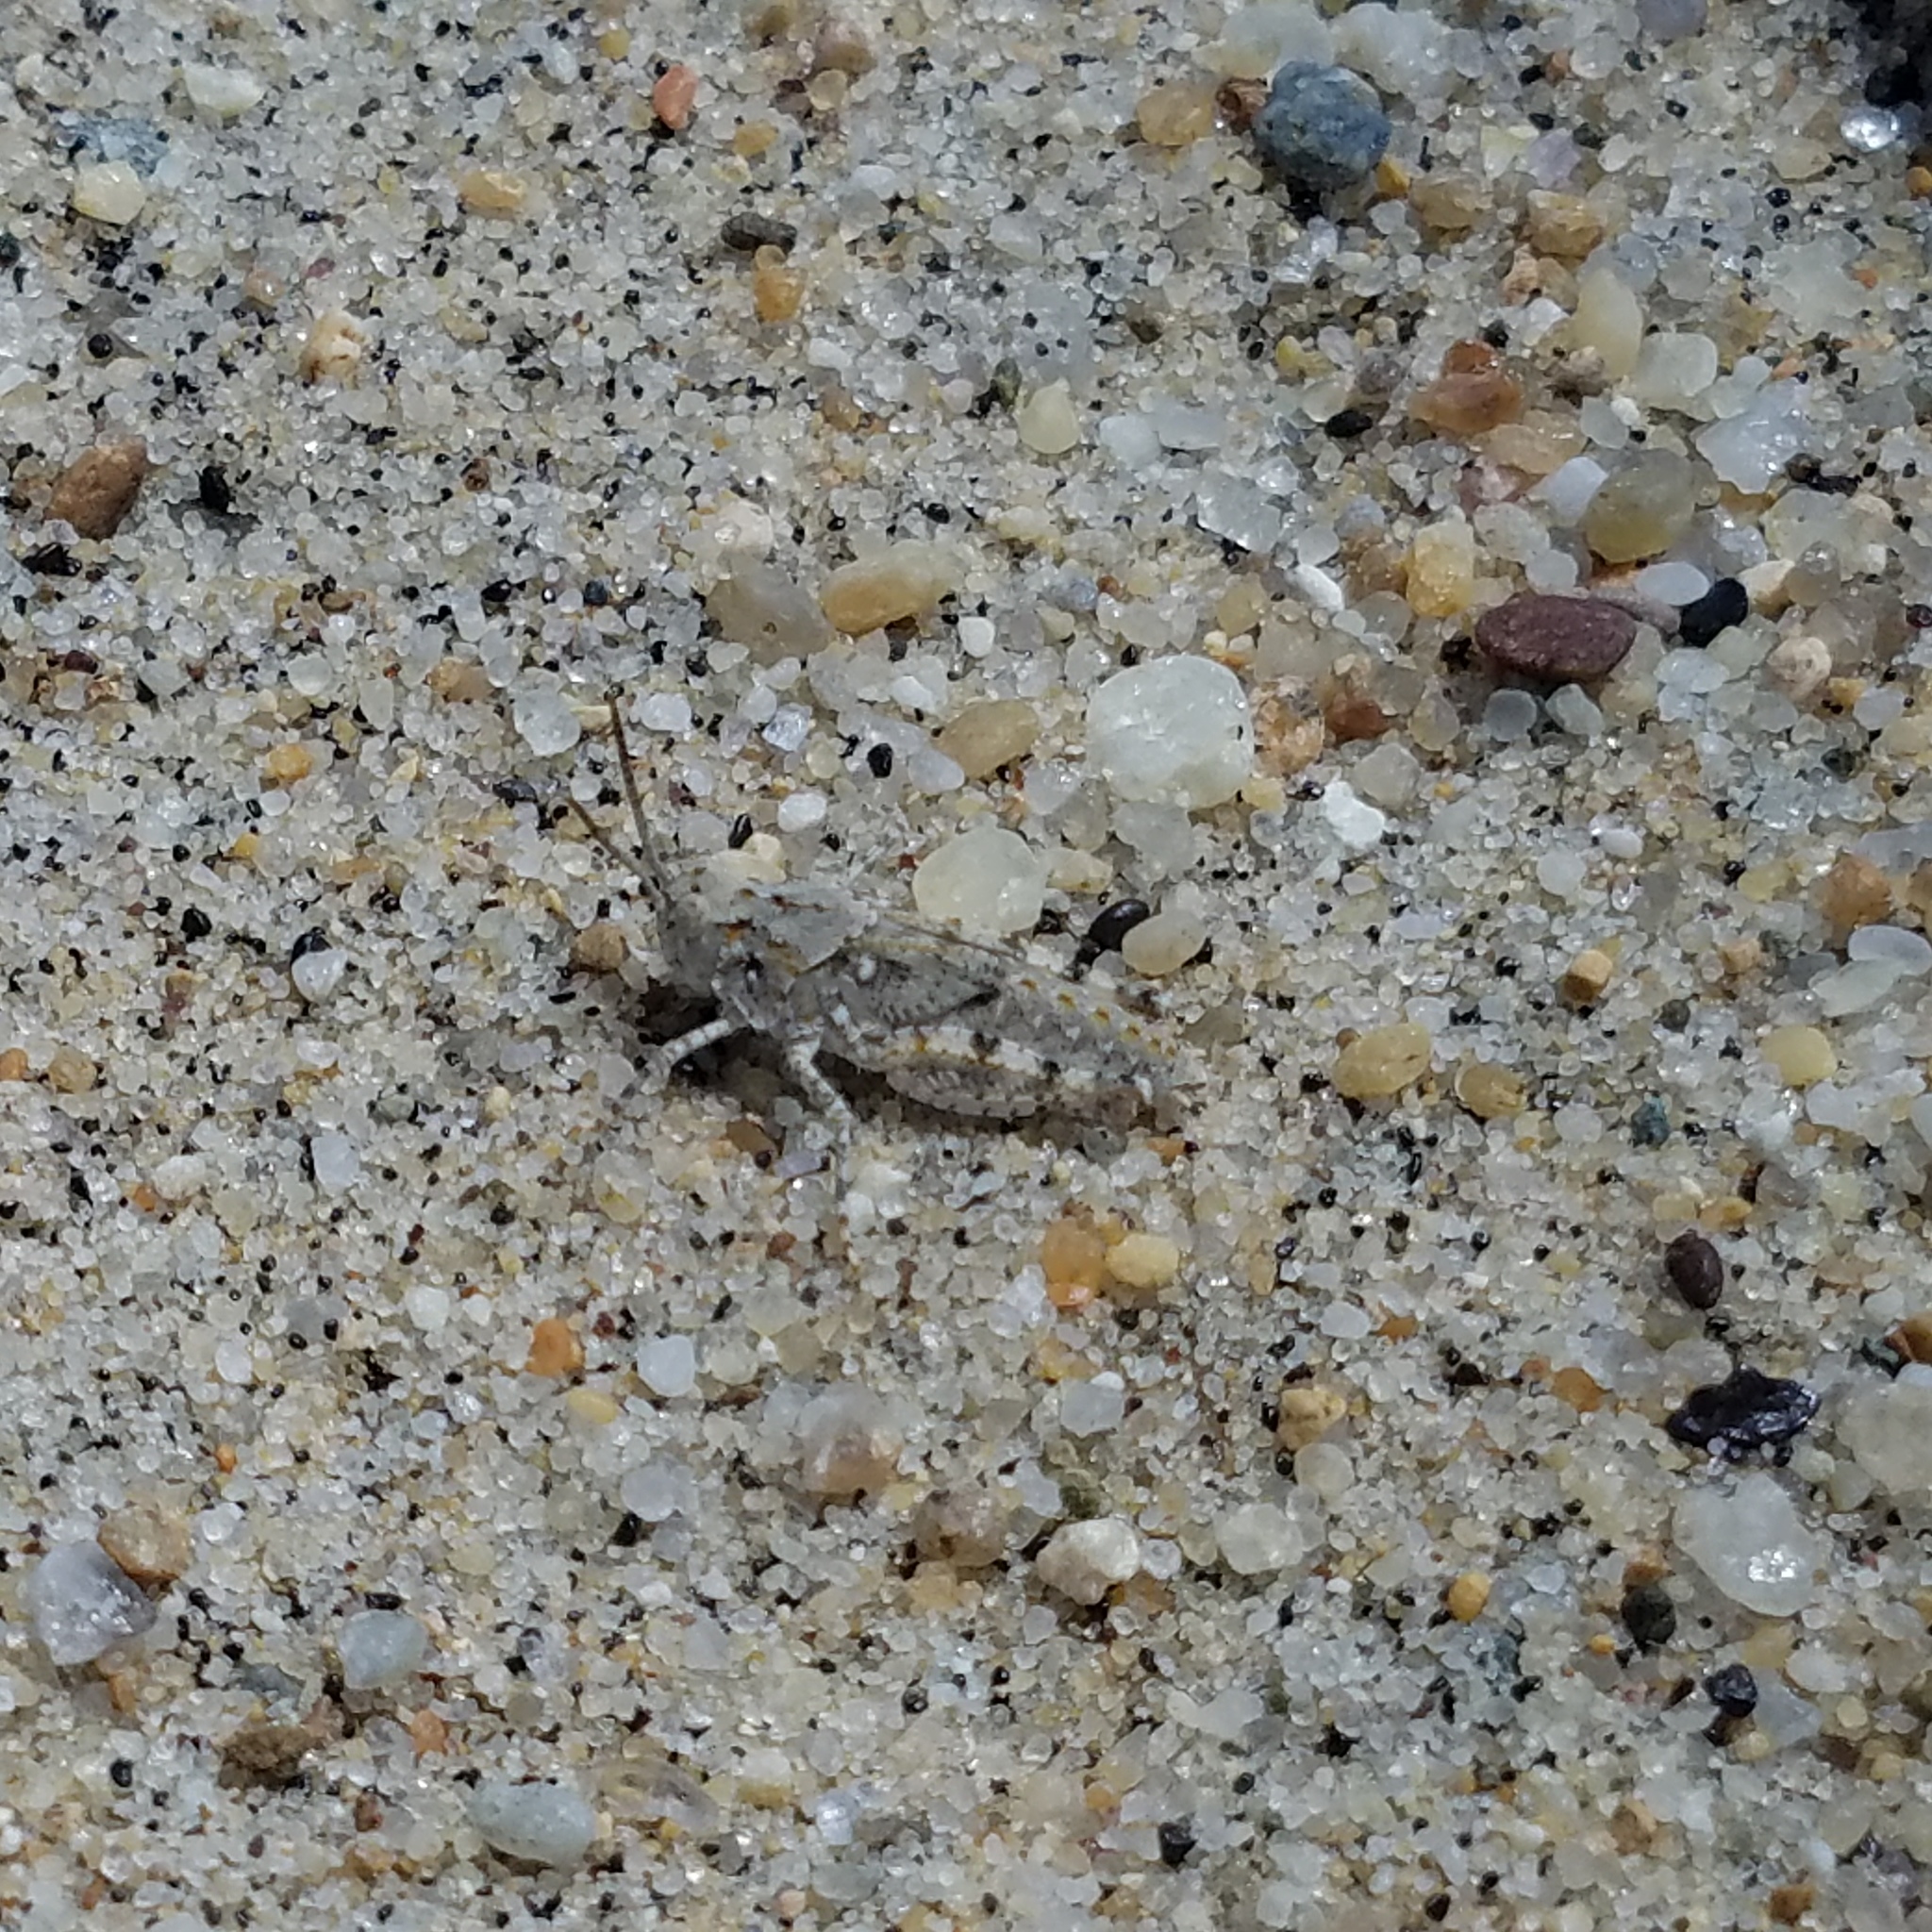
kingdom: Animalia
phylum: Arthropoda
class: Insecta
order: Orthoptera
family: Acrididae
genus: Trimerotropis
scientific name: Trimerotropis maritima
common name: Seaside locust
